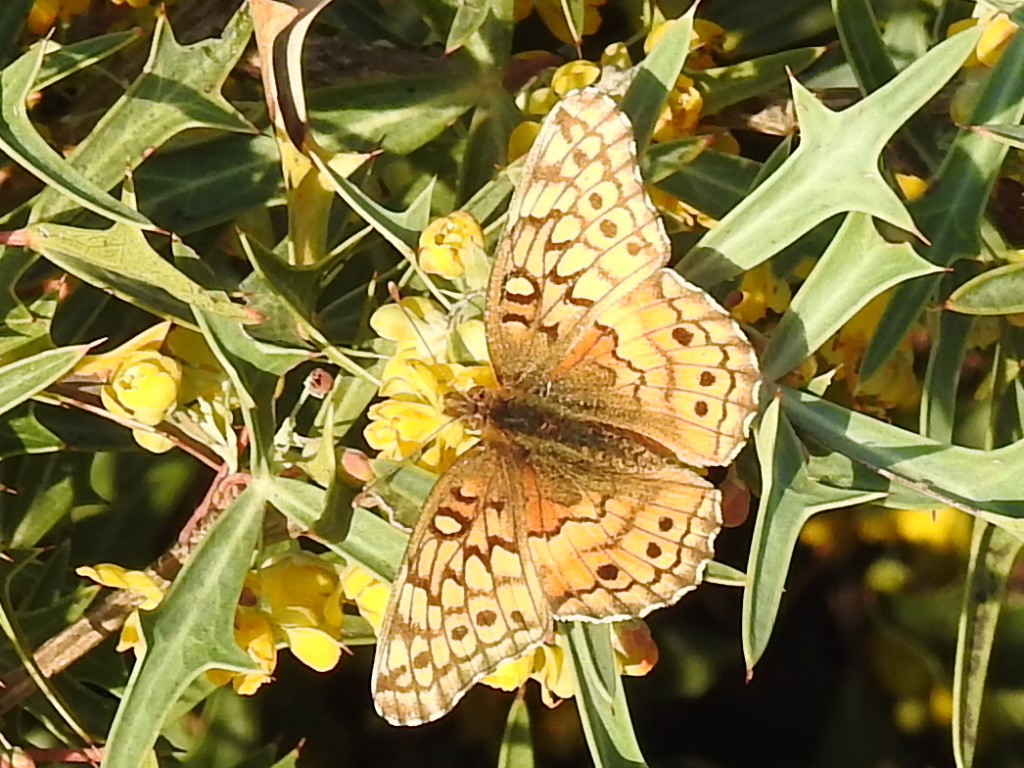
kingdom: Animalia
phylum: Arthropoda
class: Insecta
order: Lepidoptera
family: Nymphalidae
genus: Euptoieta
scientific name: Euptoieta claudia
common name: Variegated fritillary
